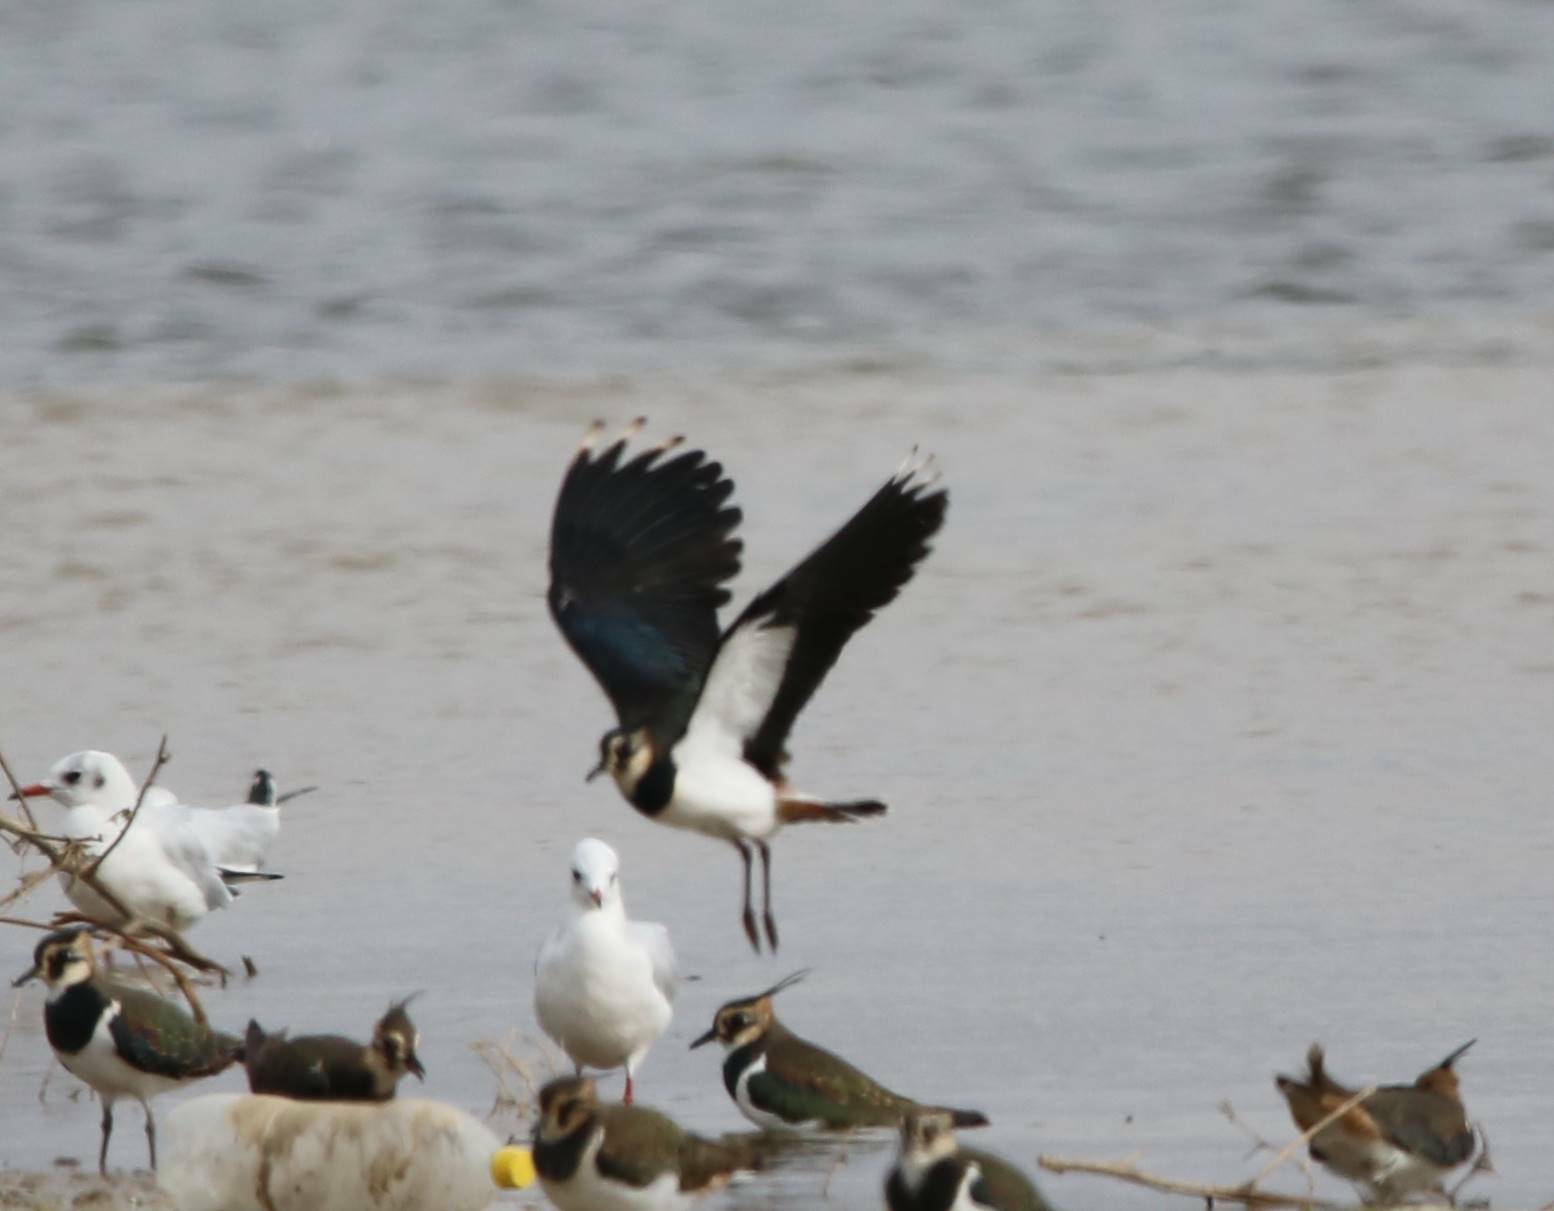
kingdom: Animalia
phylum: Chordata
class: Aves
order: Charadriiformes
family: Charadriidae
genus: Vanellus
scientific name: Vanellus vanellus
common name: Northern lapwing
